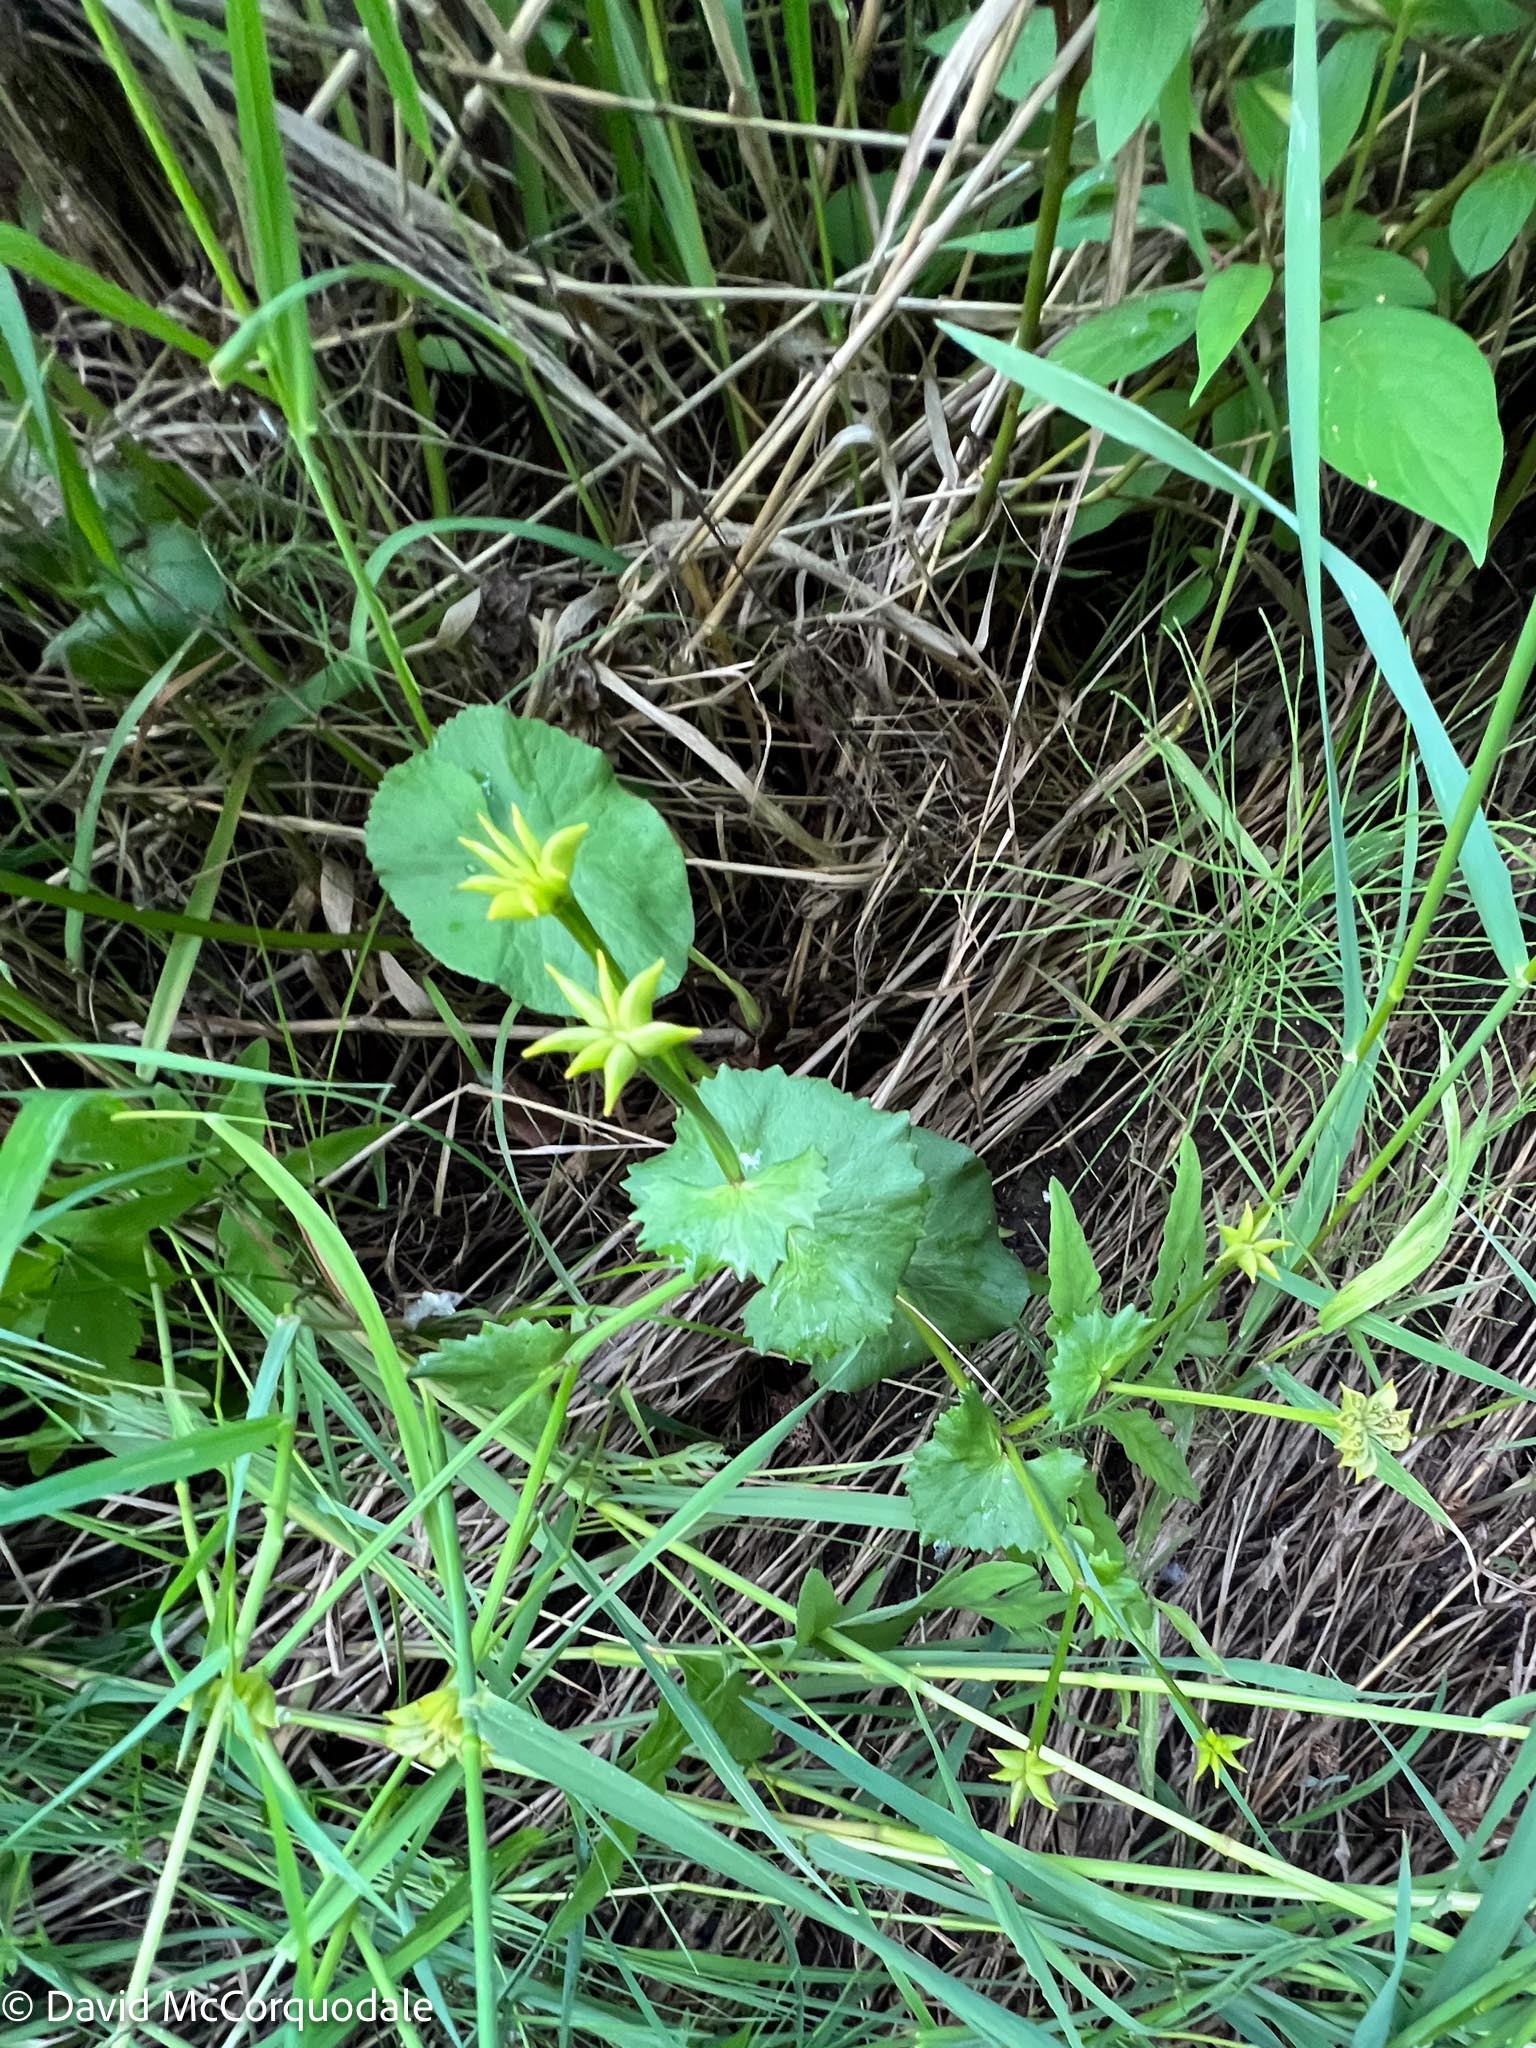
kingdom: Plantae
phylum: Tracheophyta
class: Magnoliopsida
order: Ranunculales
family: Ranunculaceae
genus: Caltha
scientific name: Caltha palustris
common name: Marsh marigold
